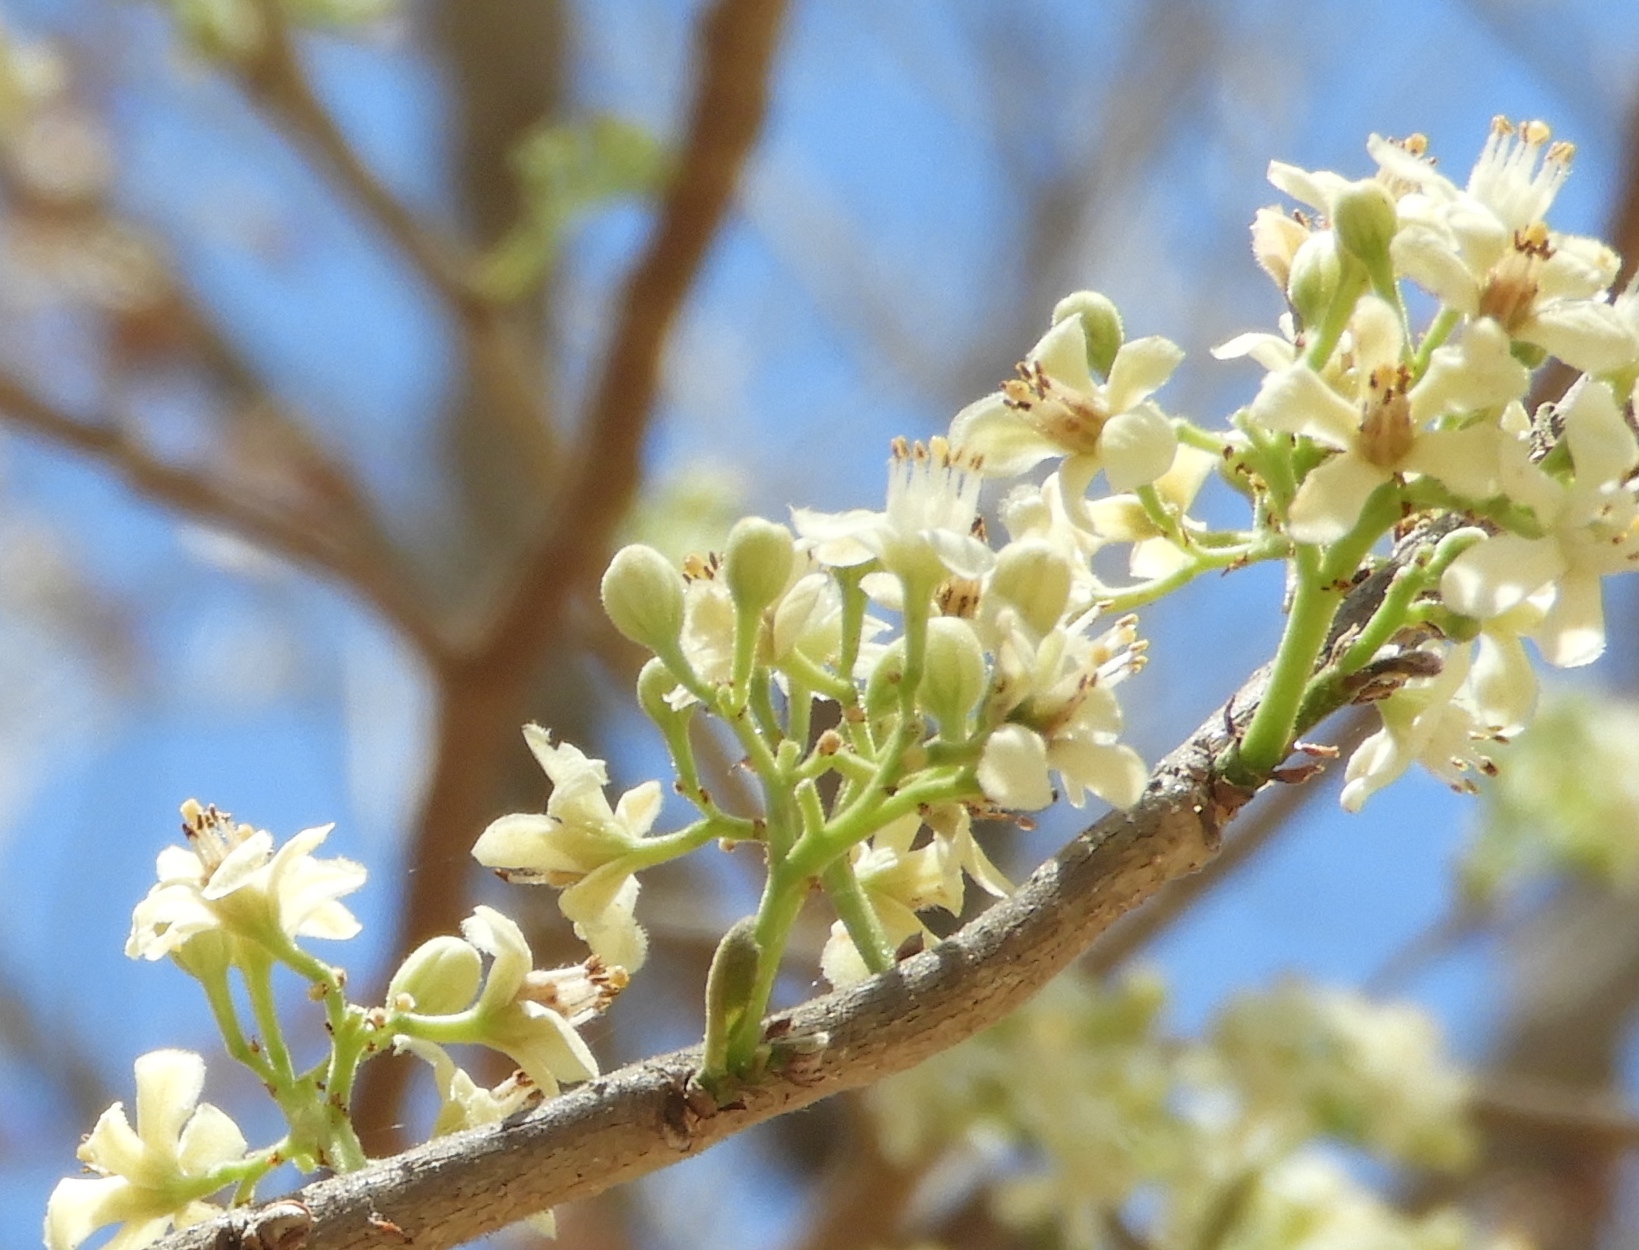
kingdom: Plantae
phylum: Tracheophyta
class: Magnoliopsida
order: Malpighiales
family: Salicaceae
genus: Casearia
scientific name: Casearia corymbosa
